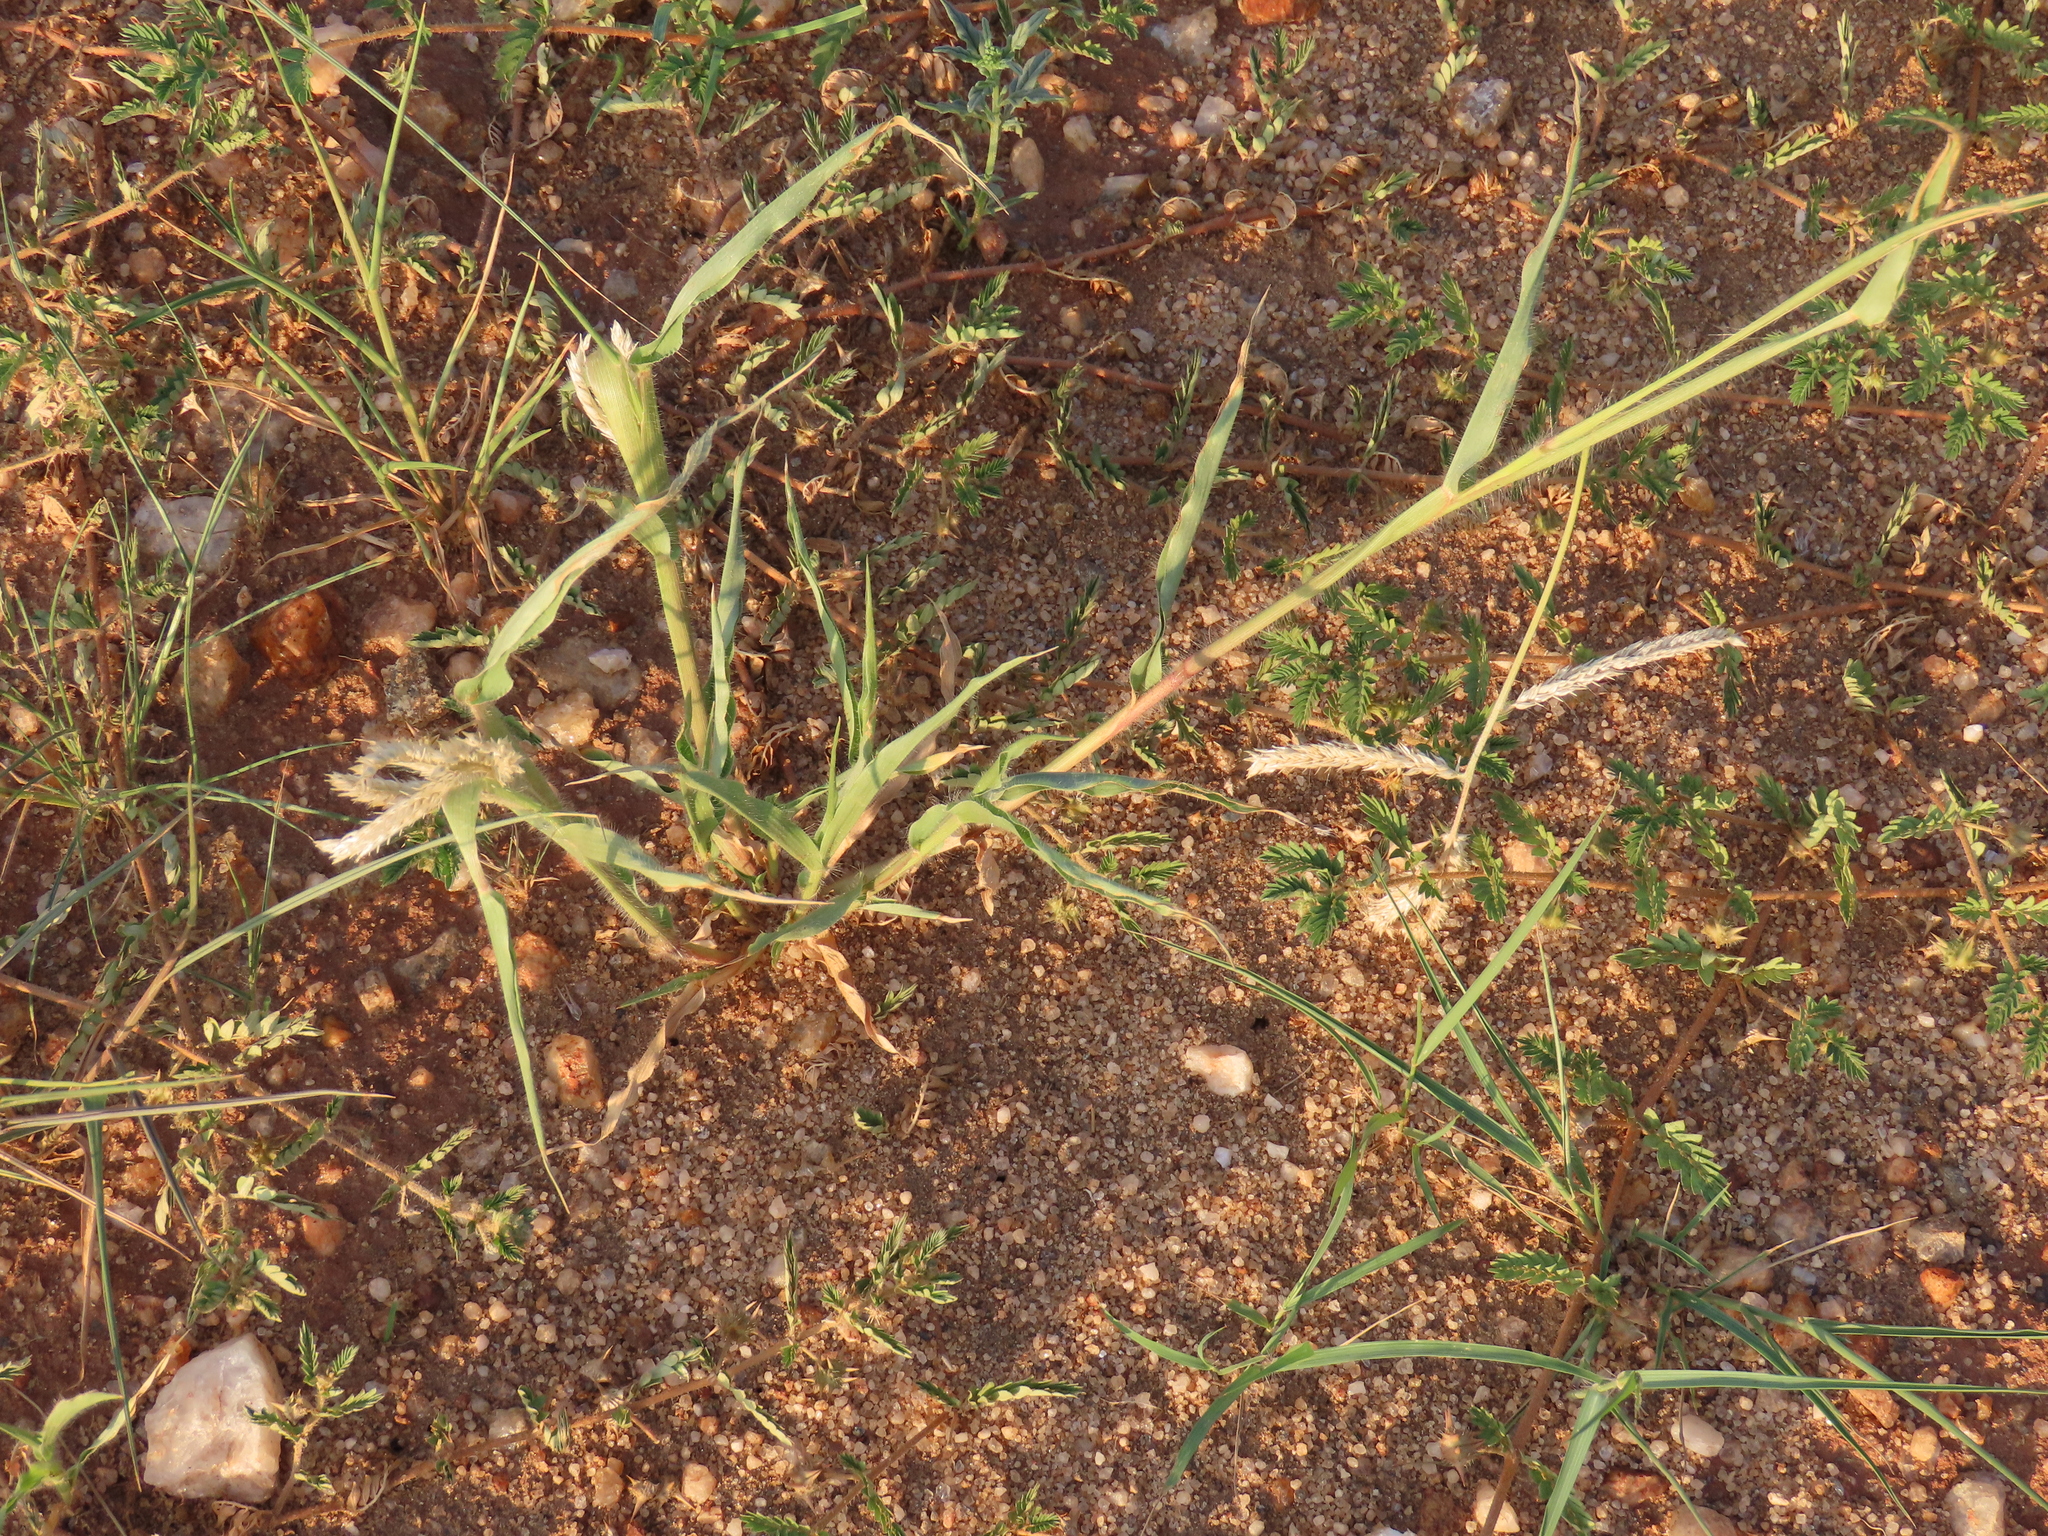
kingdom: Plantae
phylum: Tracheophyta
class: Liliopsida
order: Poales
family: Poaceae
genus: Chloris
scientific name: Chloris virgata
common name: Feathery rhodes-grass
